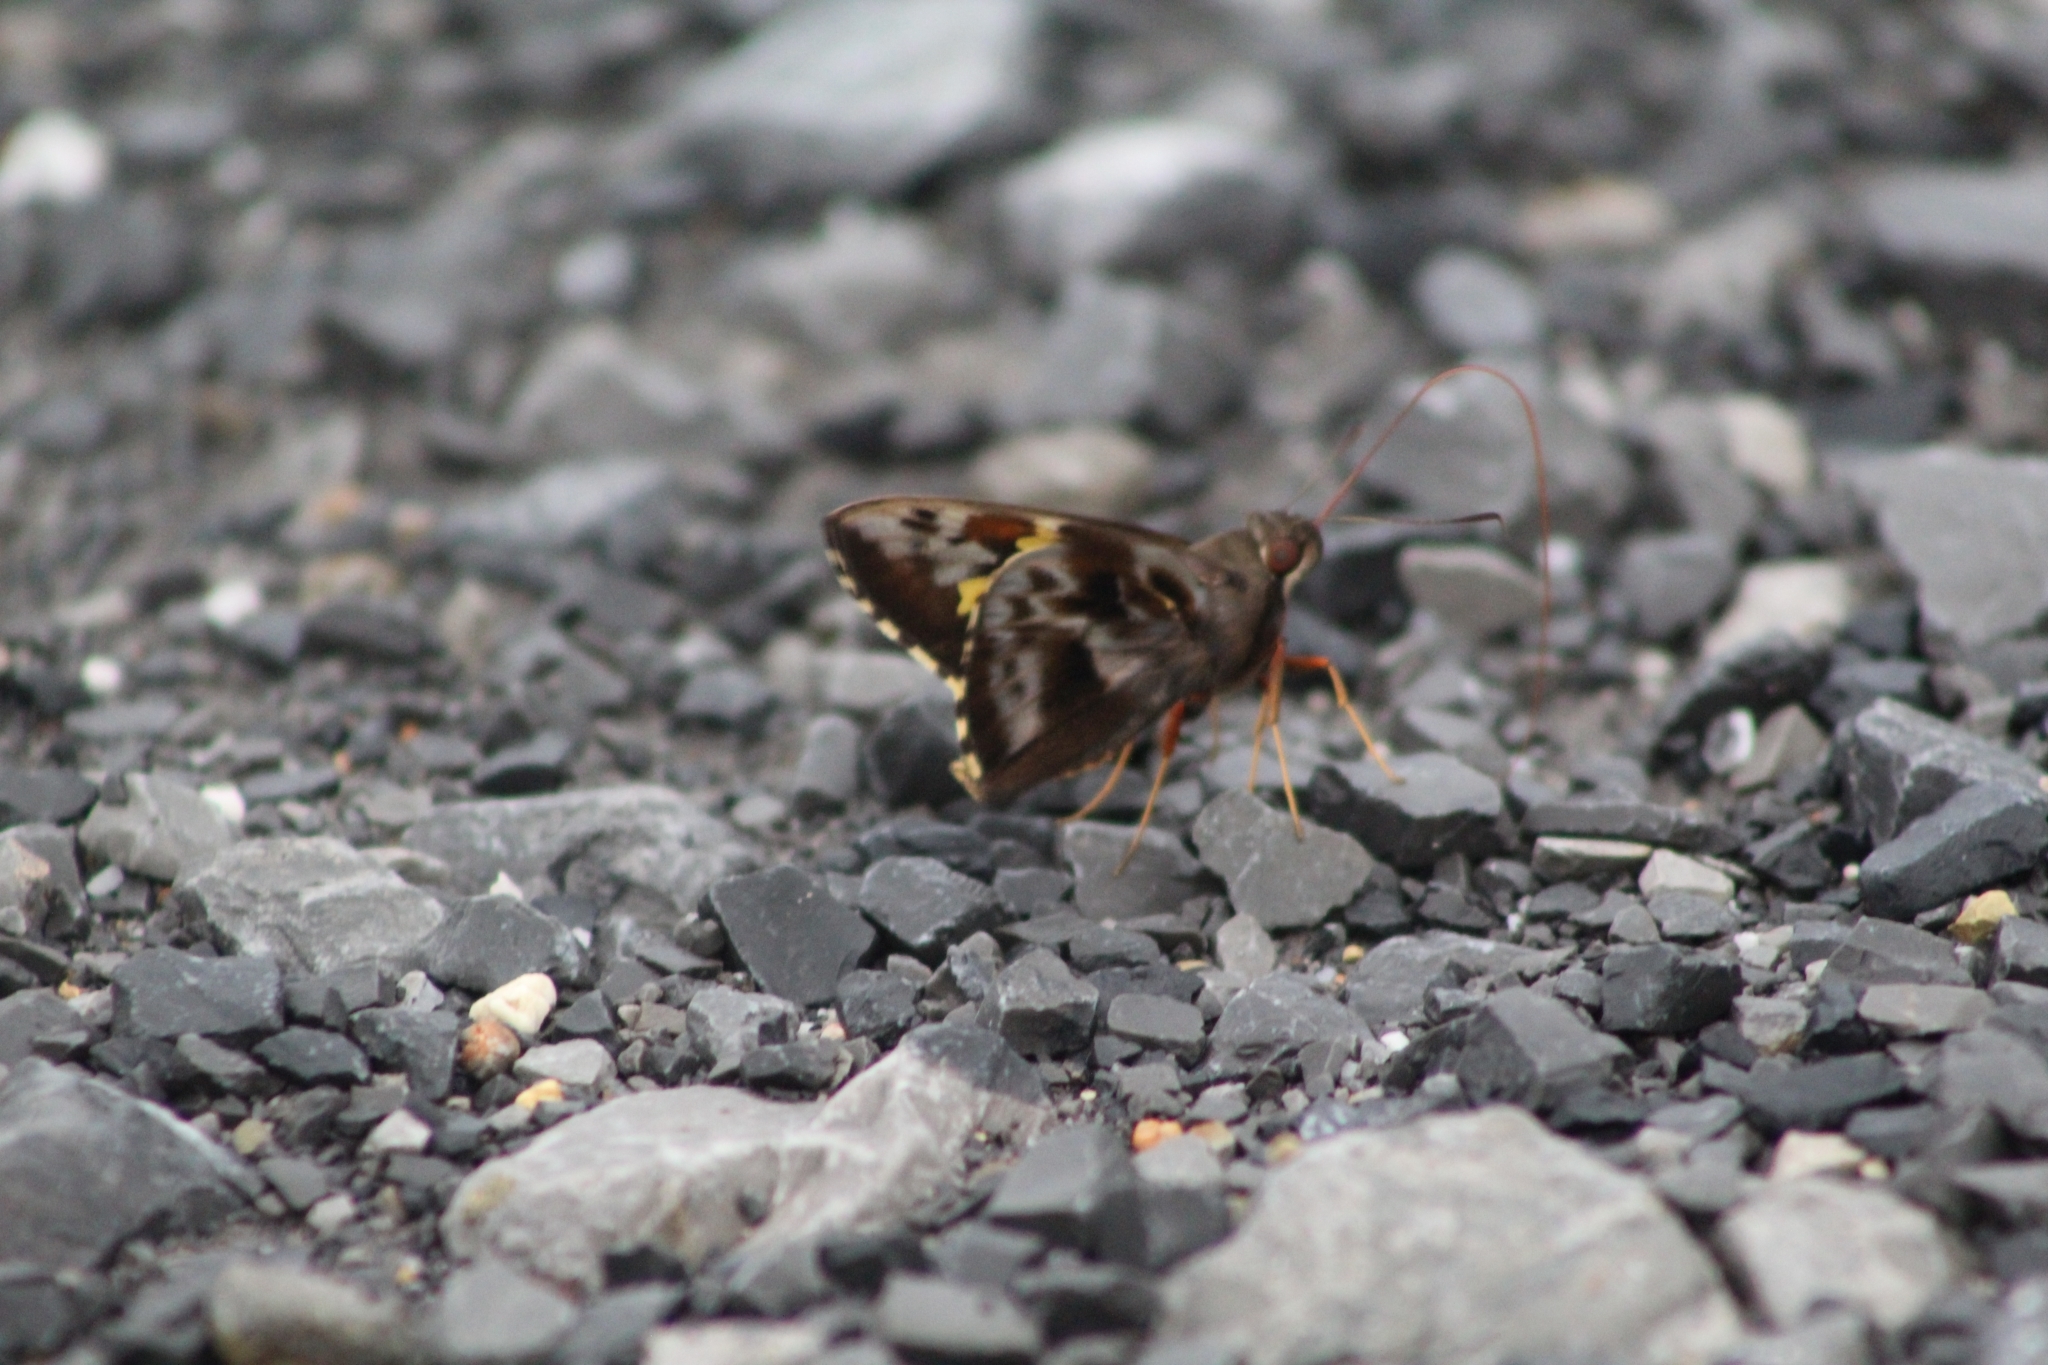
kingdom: Animalia
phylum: Arthropoda
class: Insecta
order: Lepidoptera
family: Hesperiidae
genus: Perichares
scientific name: Perichares philetes
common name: Green-backed ruby-eye
